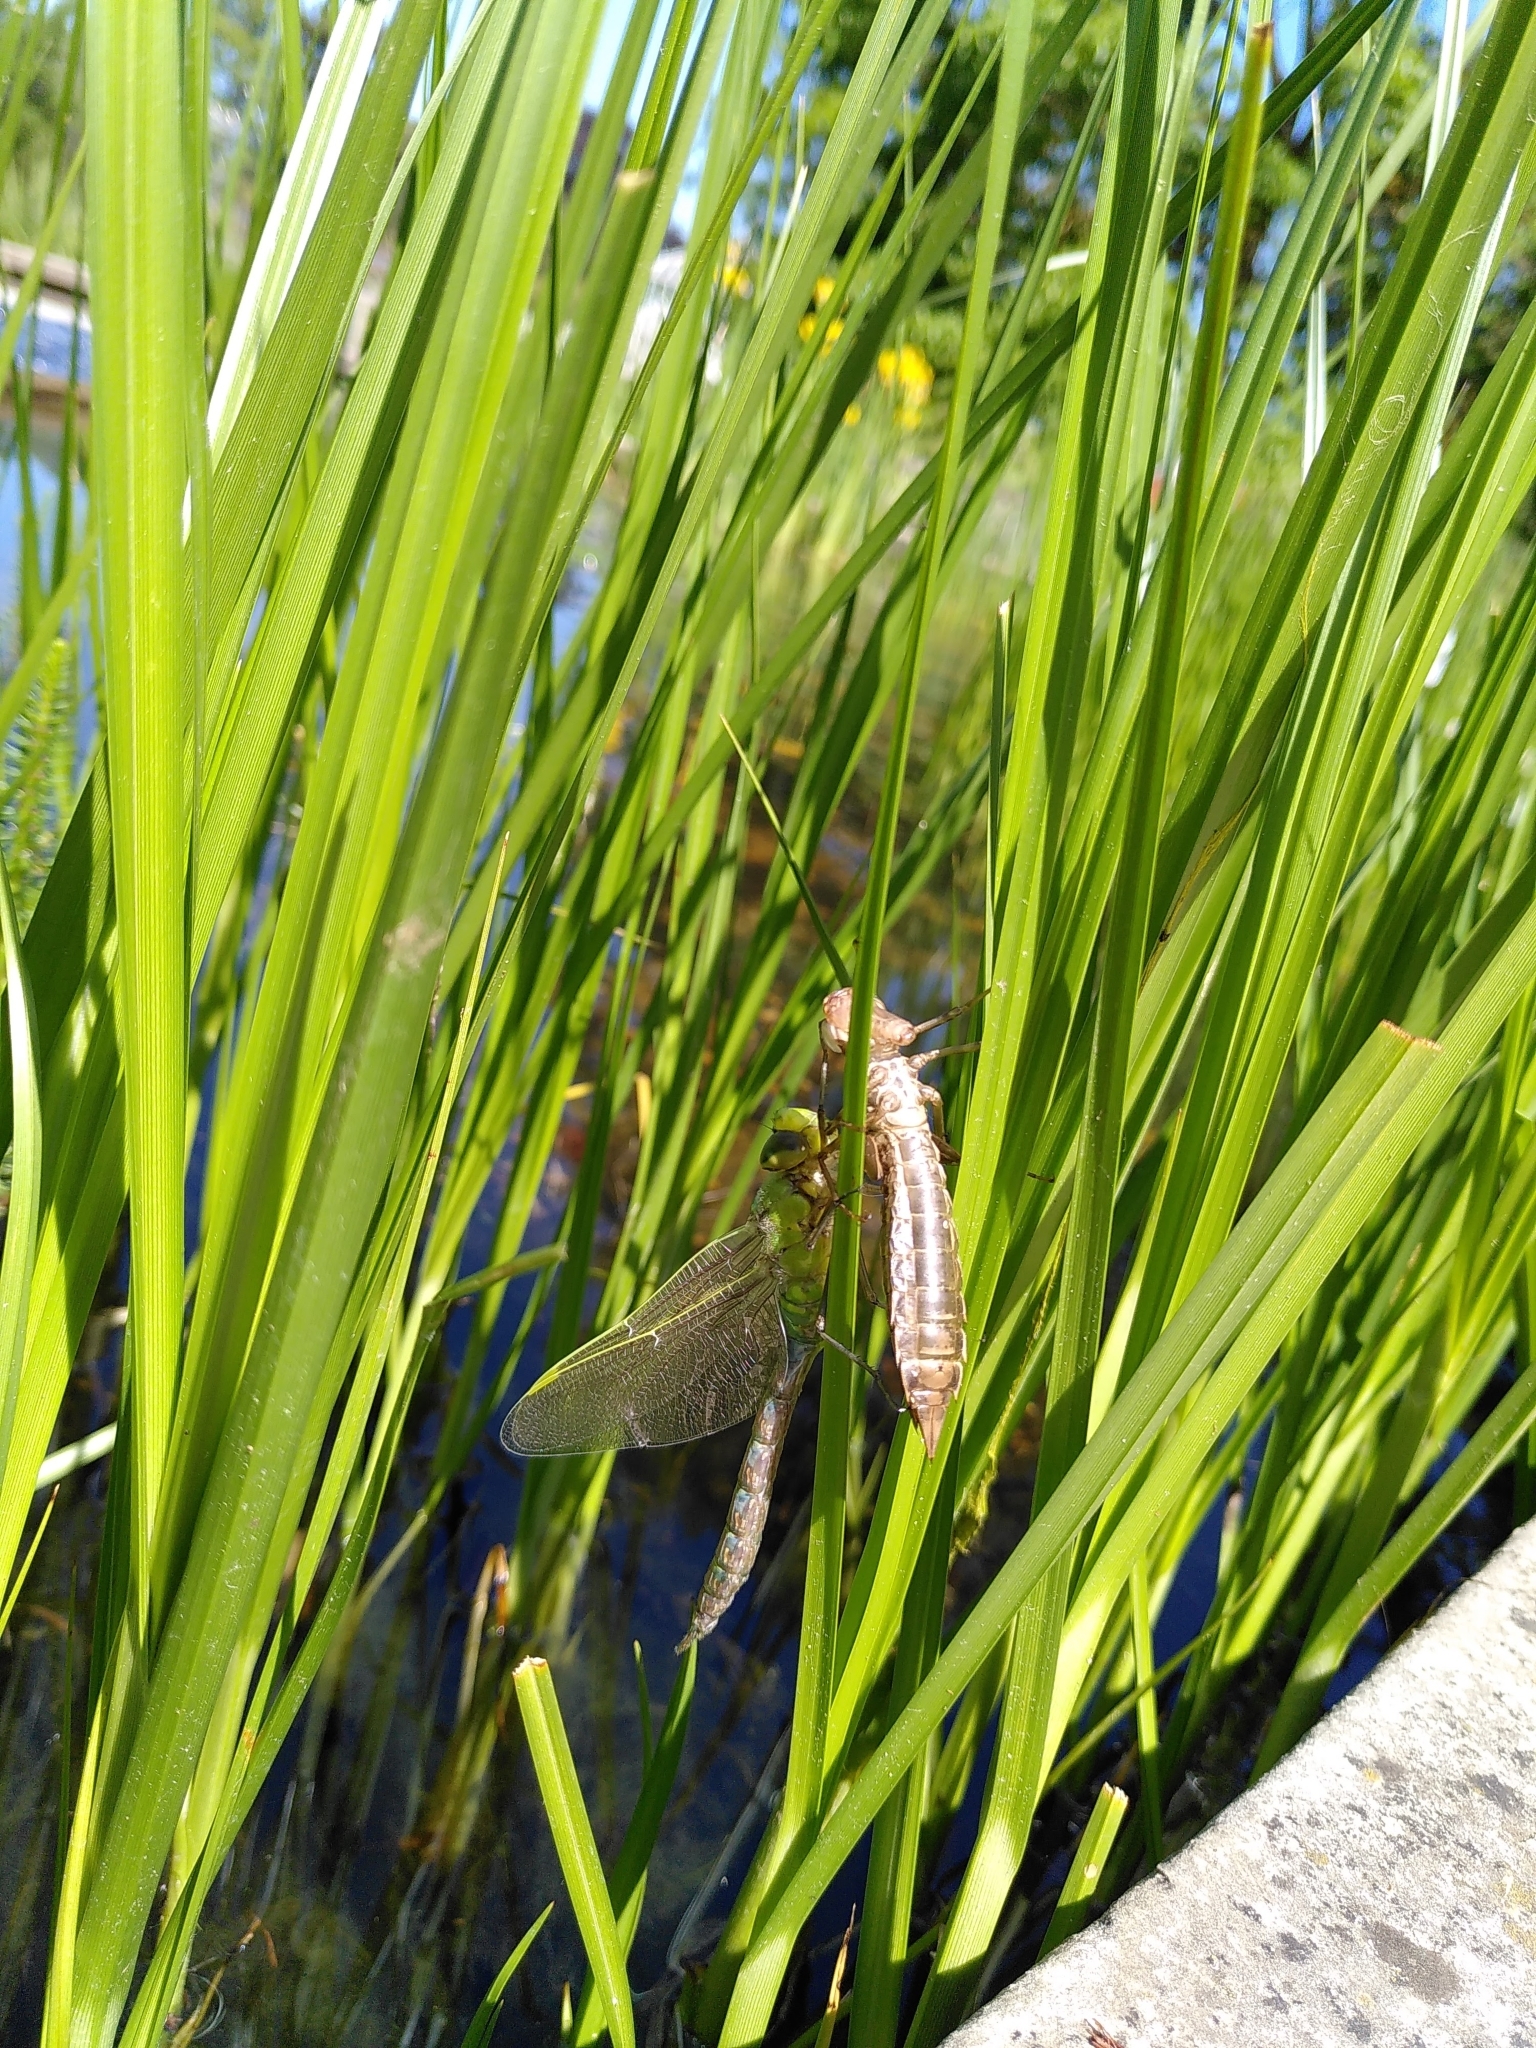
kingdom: Animalia
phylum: Arthropoda
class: Insecta
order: Odonata
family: Aeshnidae
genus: Anax
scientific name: Anax imperator
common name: Emperor dragonfly
